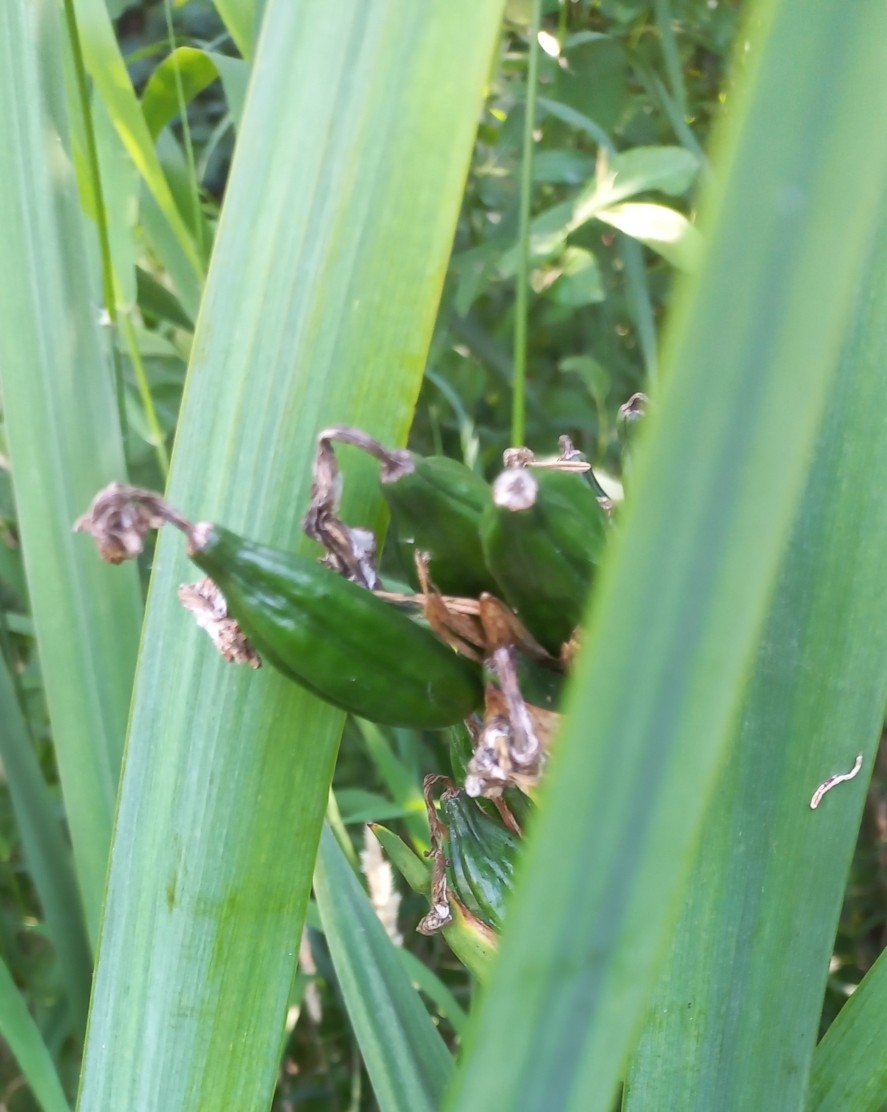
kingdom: Plantae
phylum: Tracheophyta
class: Liliopsida
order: Asparagales
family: Iridaceae
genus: Iris
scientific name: Iris pseudacorus
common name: Yellow flag
